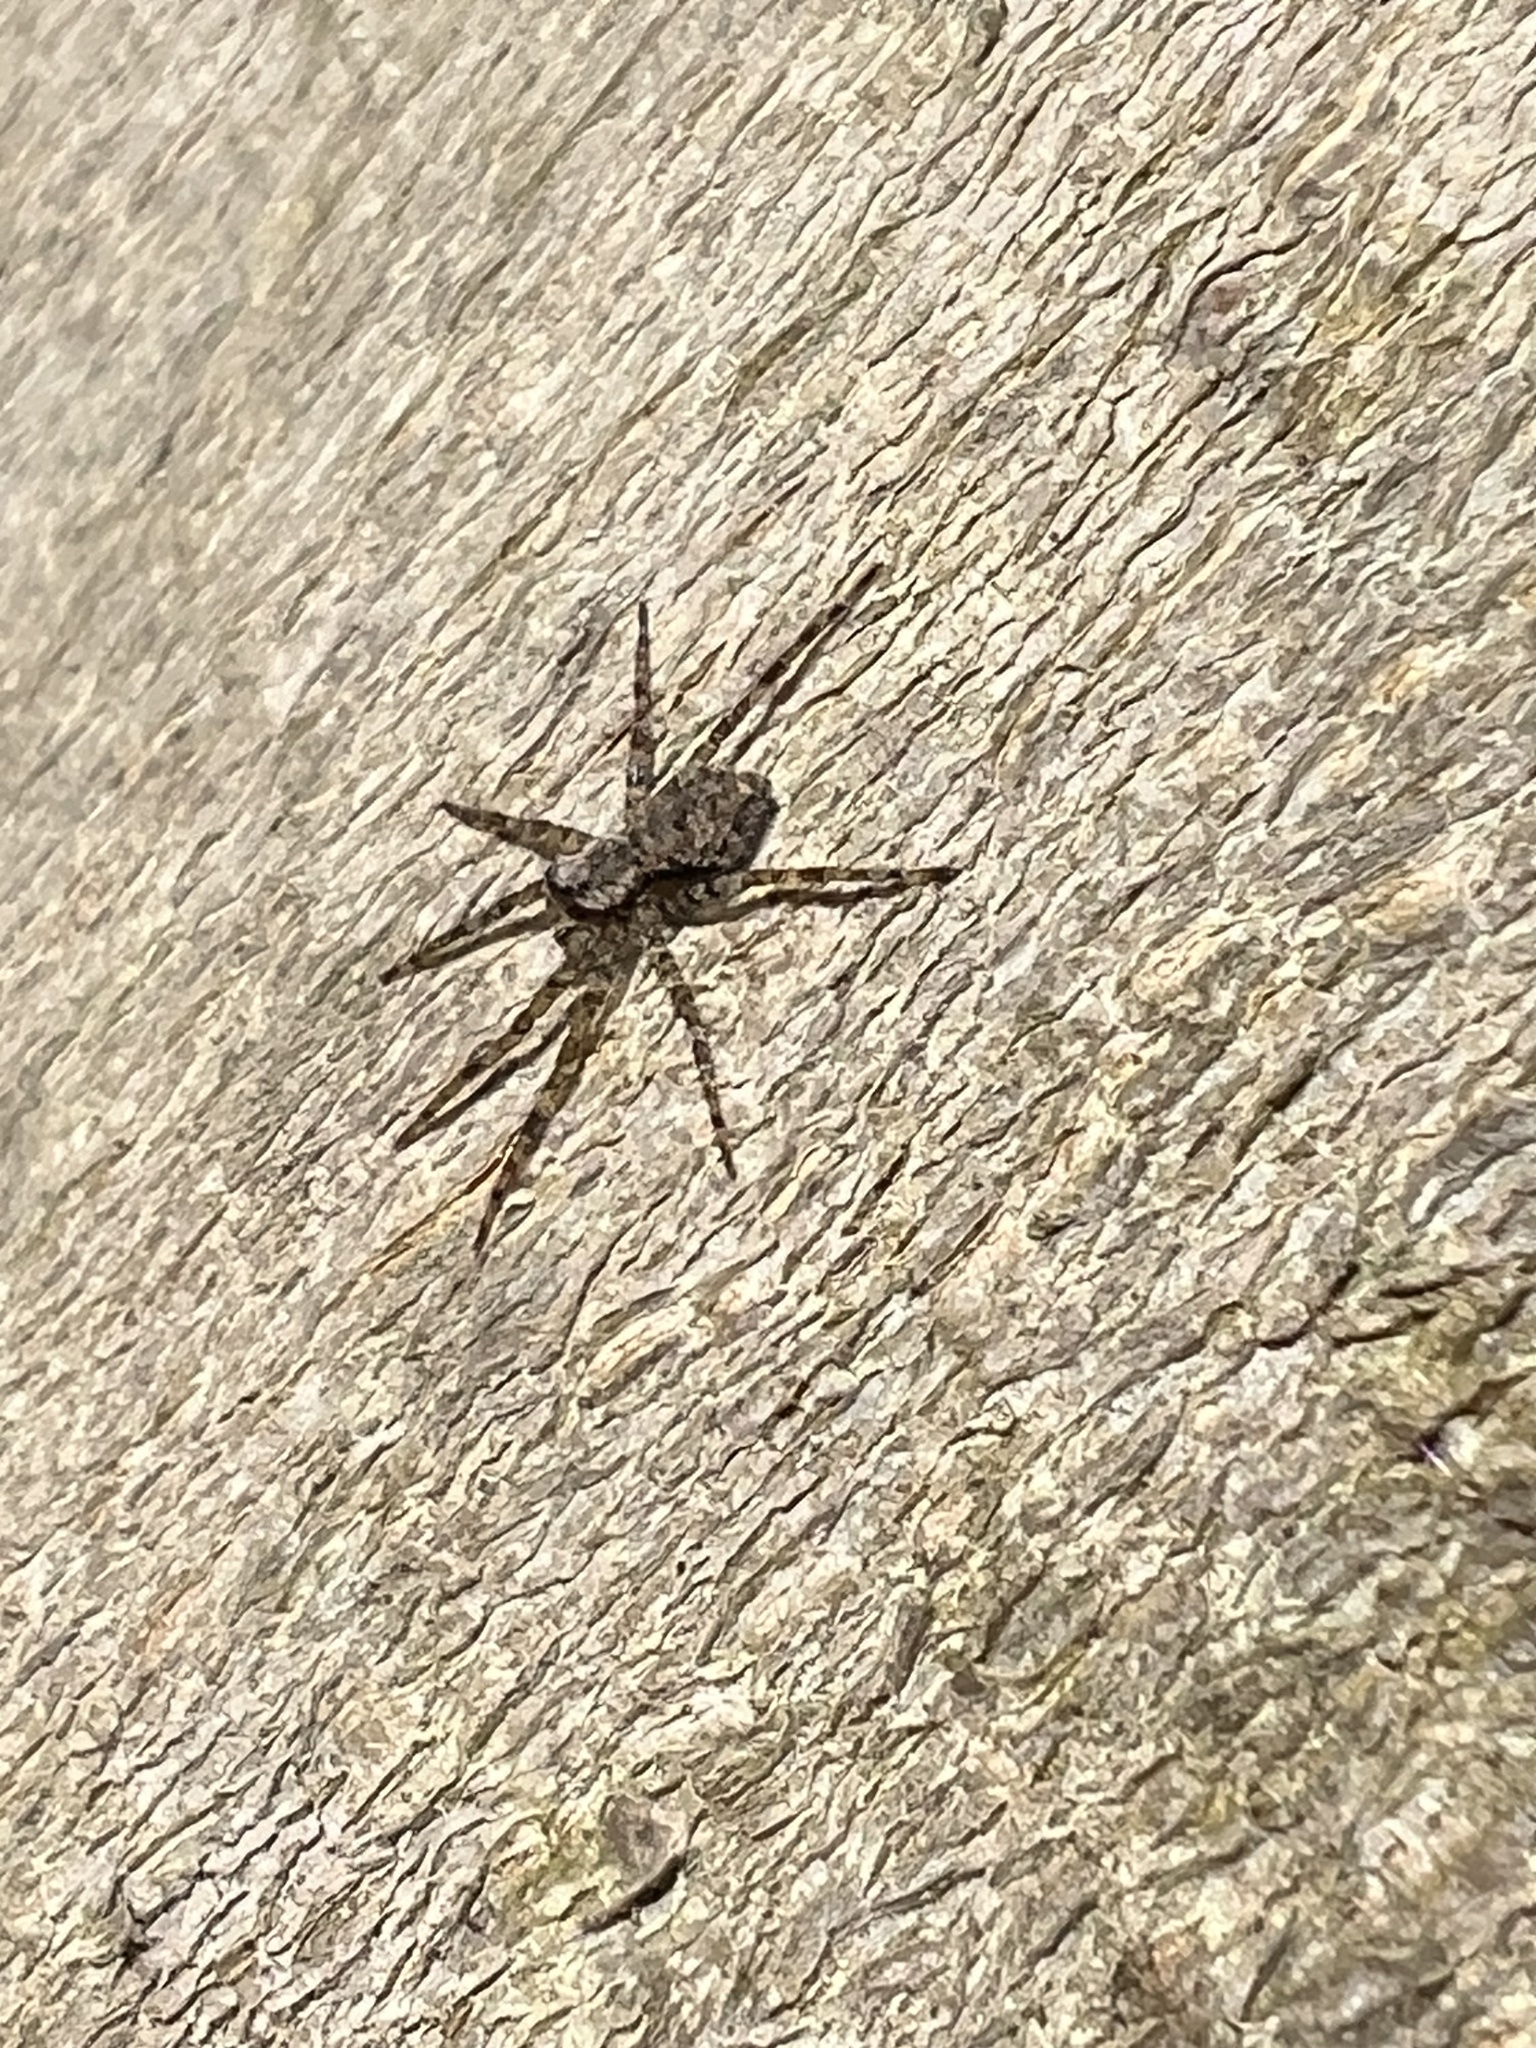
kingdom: Animalia
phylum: Arthropoda
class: Arachnida
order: Araneae
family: Pisauridae
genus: Dolomedes
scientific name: Dolomedes albineus
